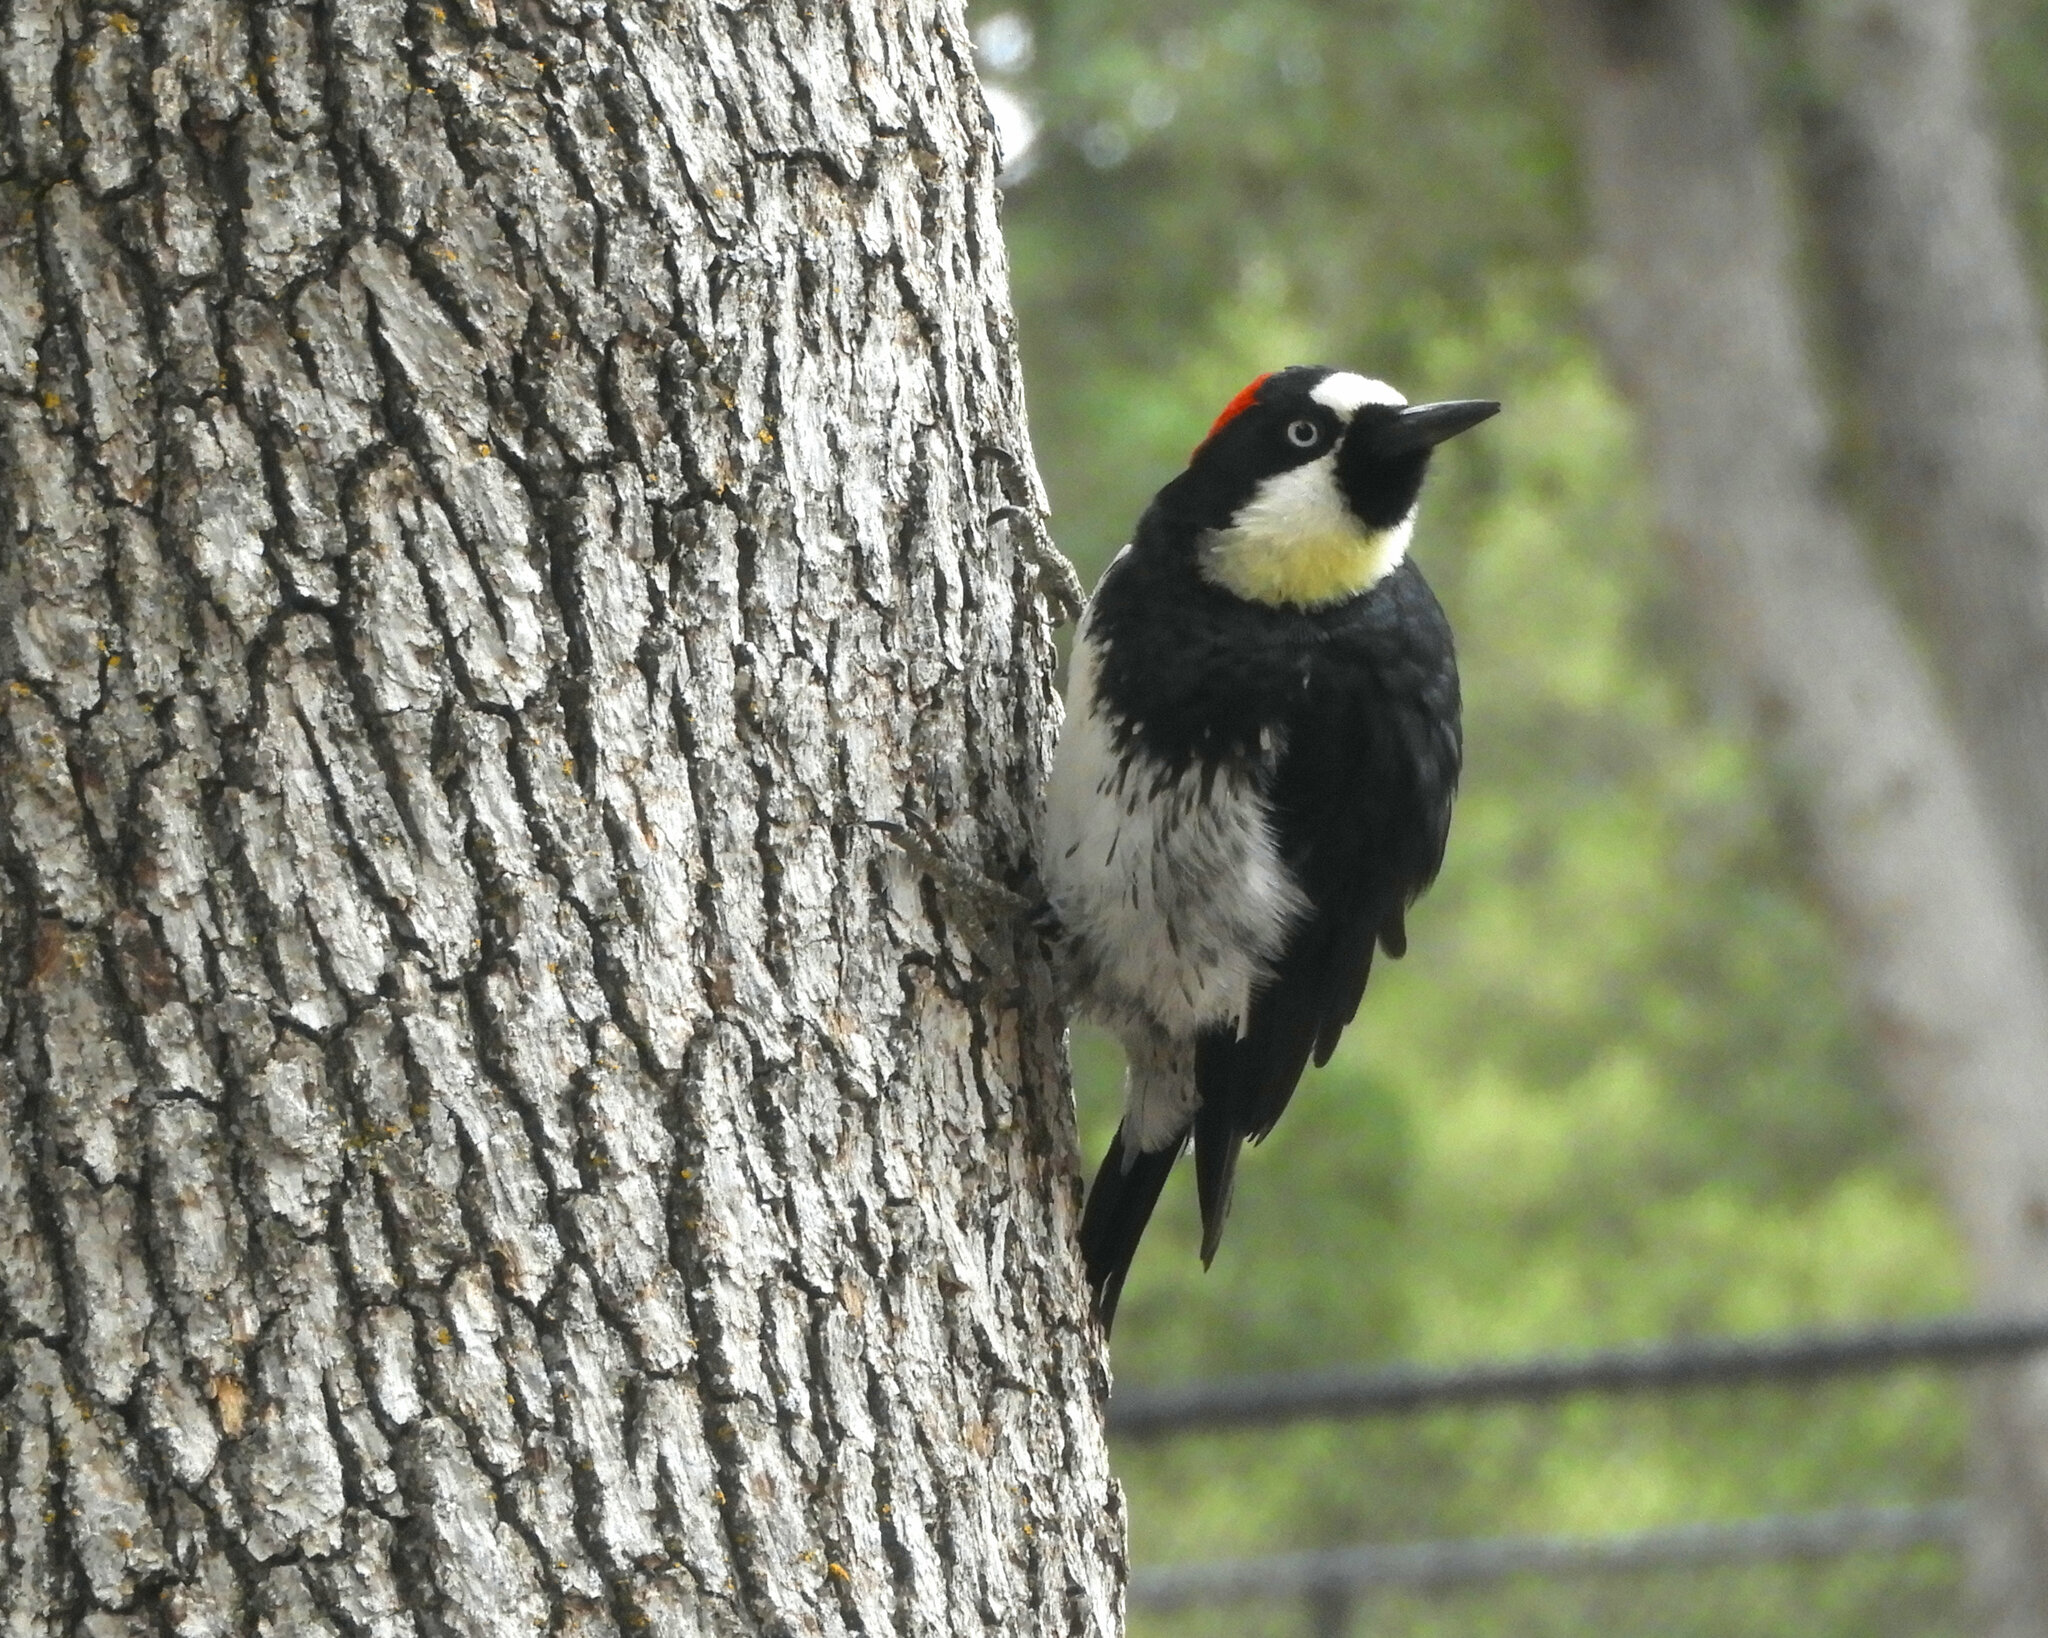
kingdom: Animalia
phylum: Chordata
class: Aves
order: Piciformes
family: Picidae
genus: Melanerpes
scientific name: Melanerpes formicivorus
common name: Acorn woodpecker
